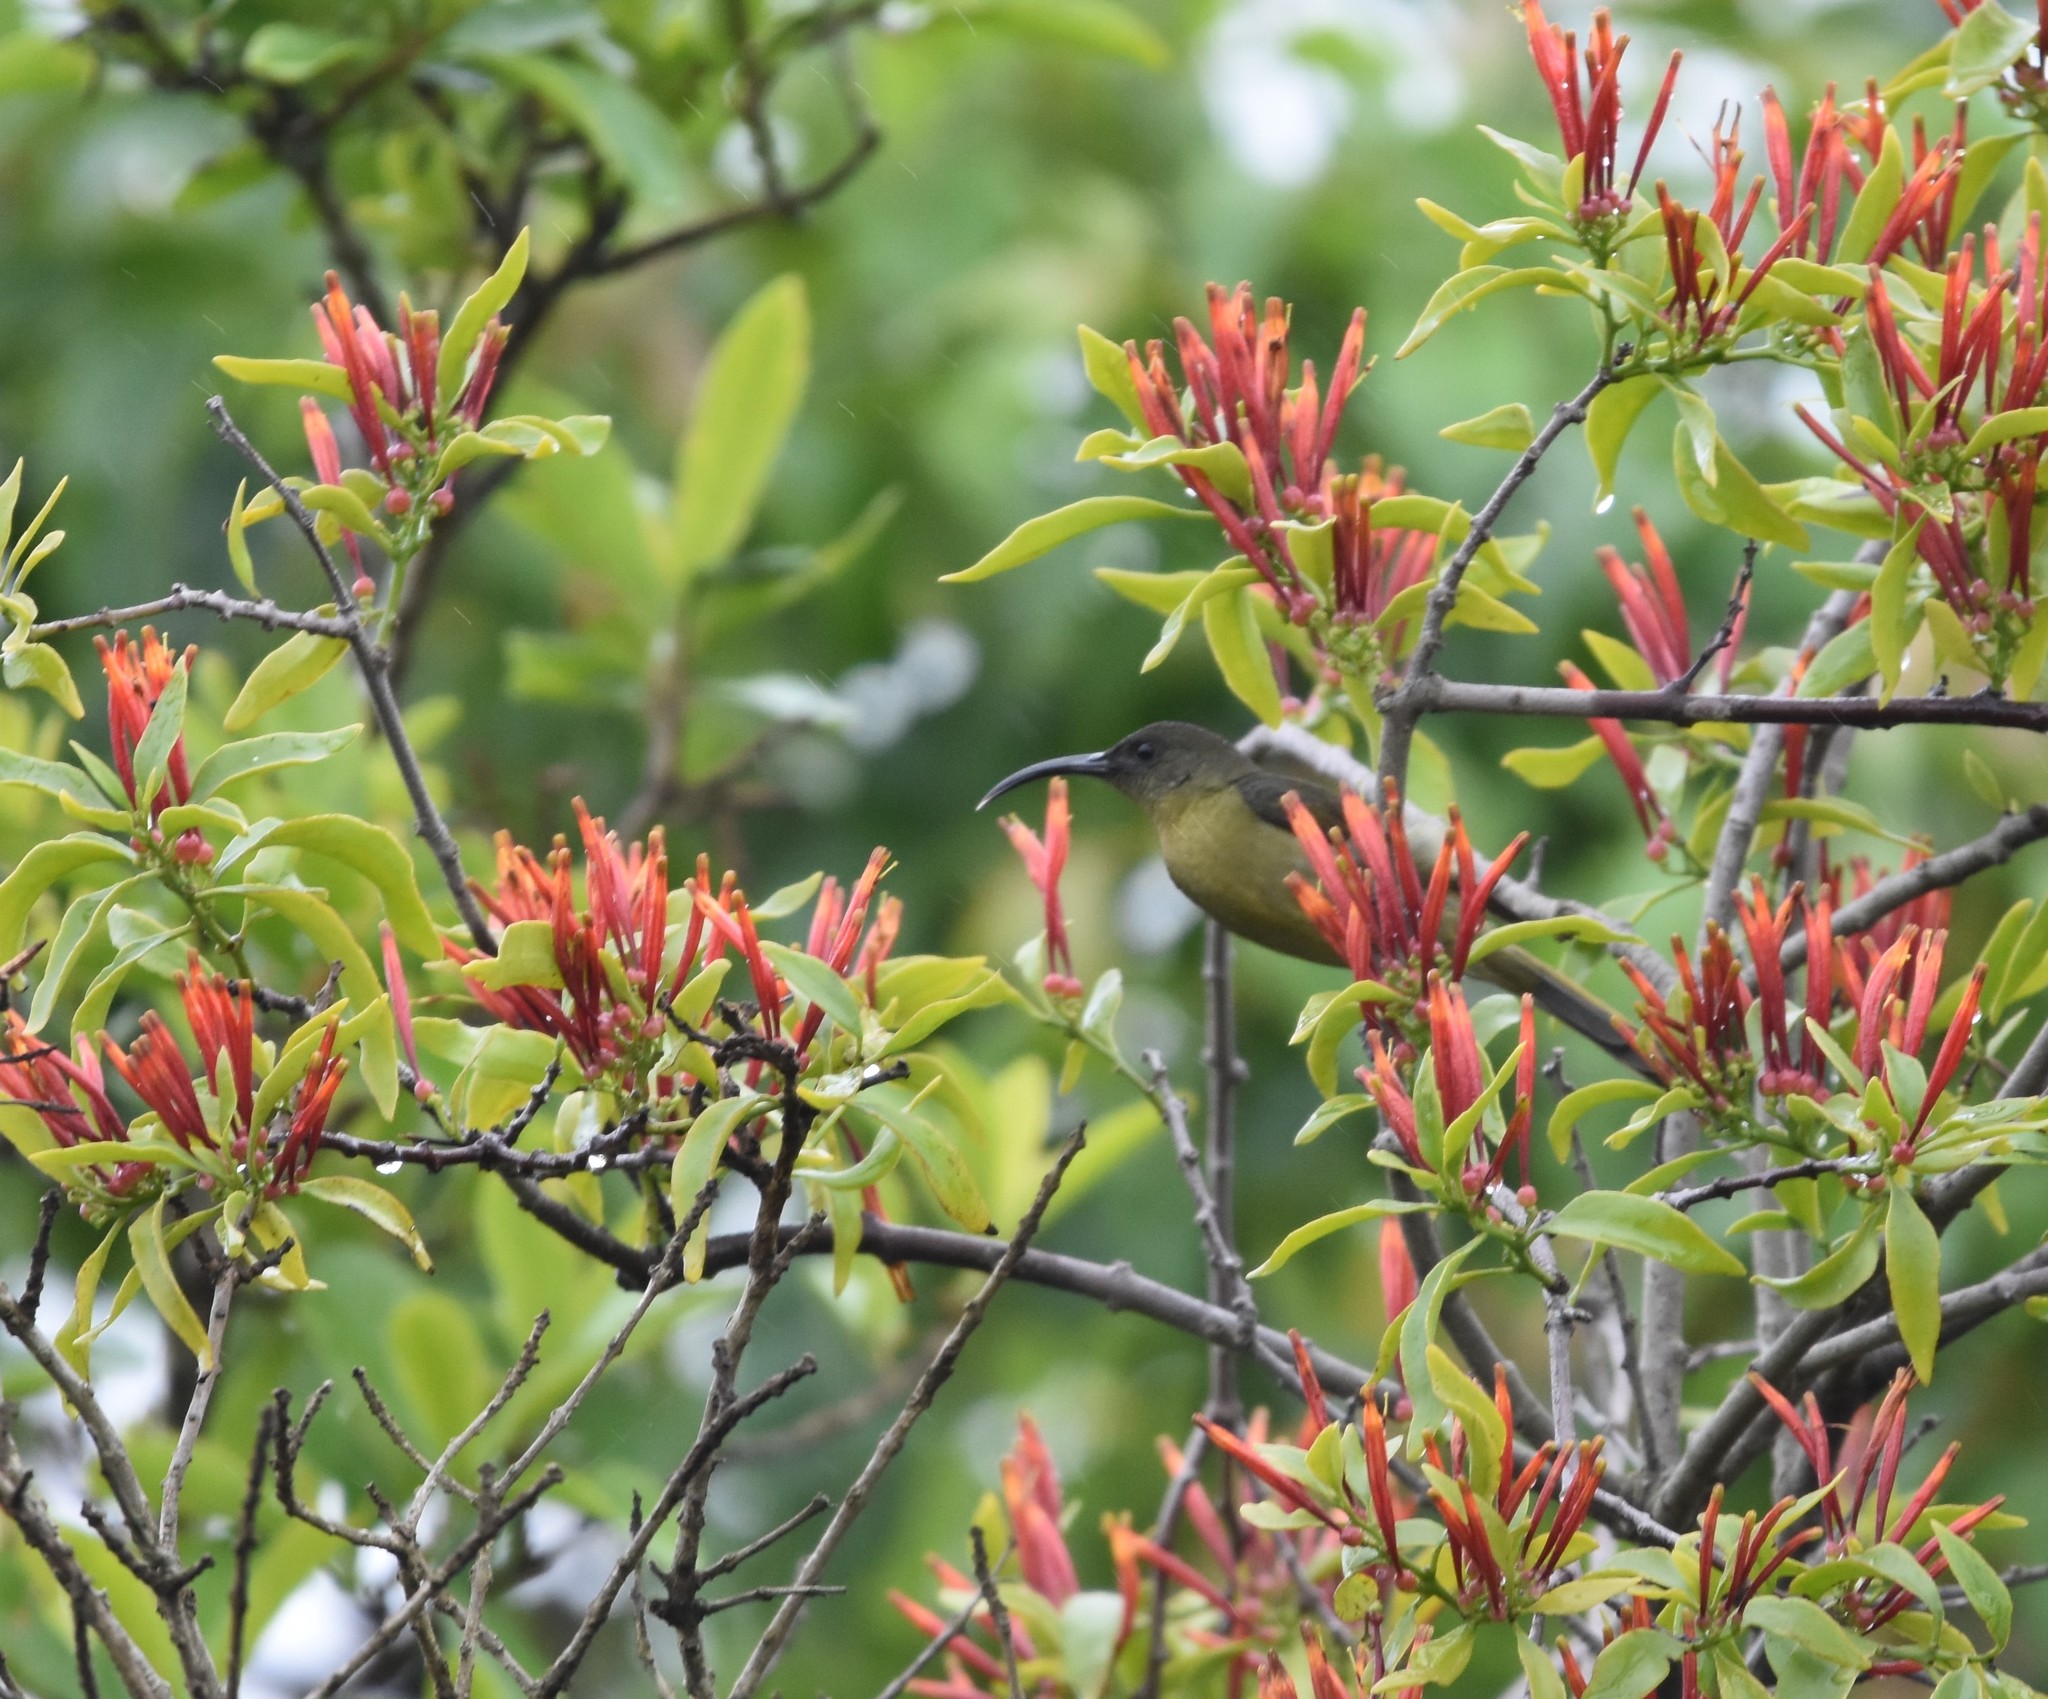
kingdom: Animalia
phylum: Chordata
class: Aves
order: Passeriformes
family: Nectariniidae
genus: Cyanomitra
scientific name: Cyanomitra olivacea
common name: Olive sunbird
